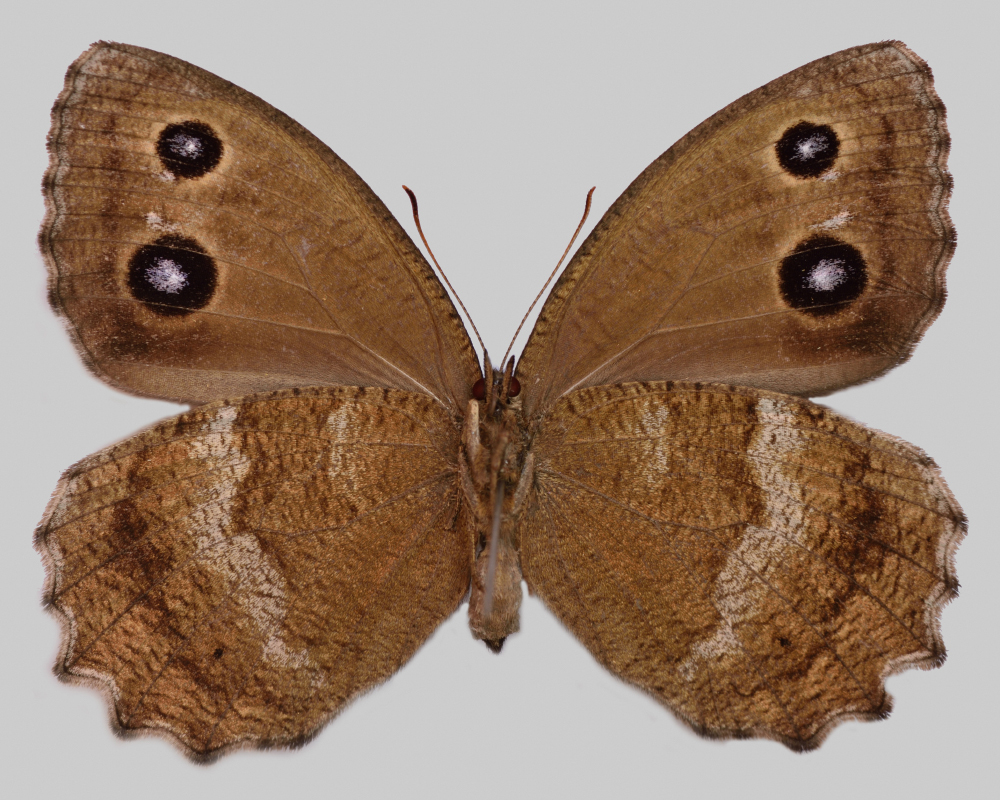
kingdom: Animalia
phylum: Arthropoda
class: Insecta
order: Lepidoptera
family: Nymphalidae
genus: Minois
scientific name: Minois dryas
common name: Dryad
